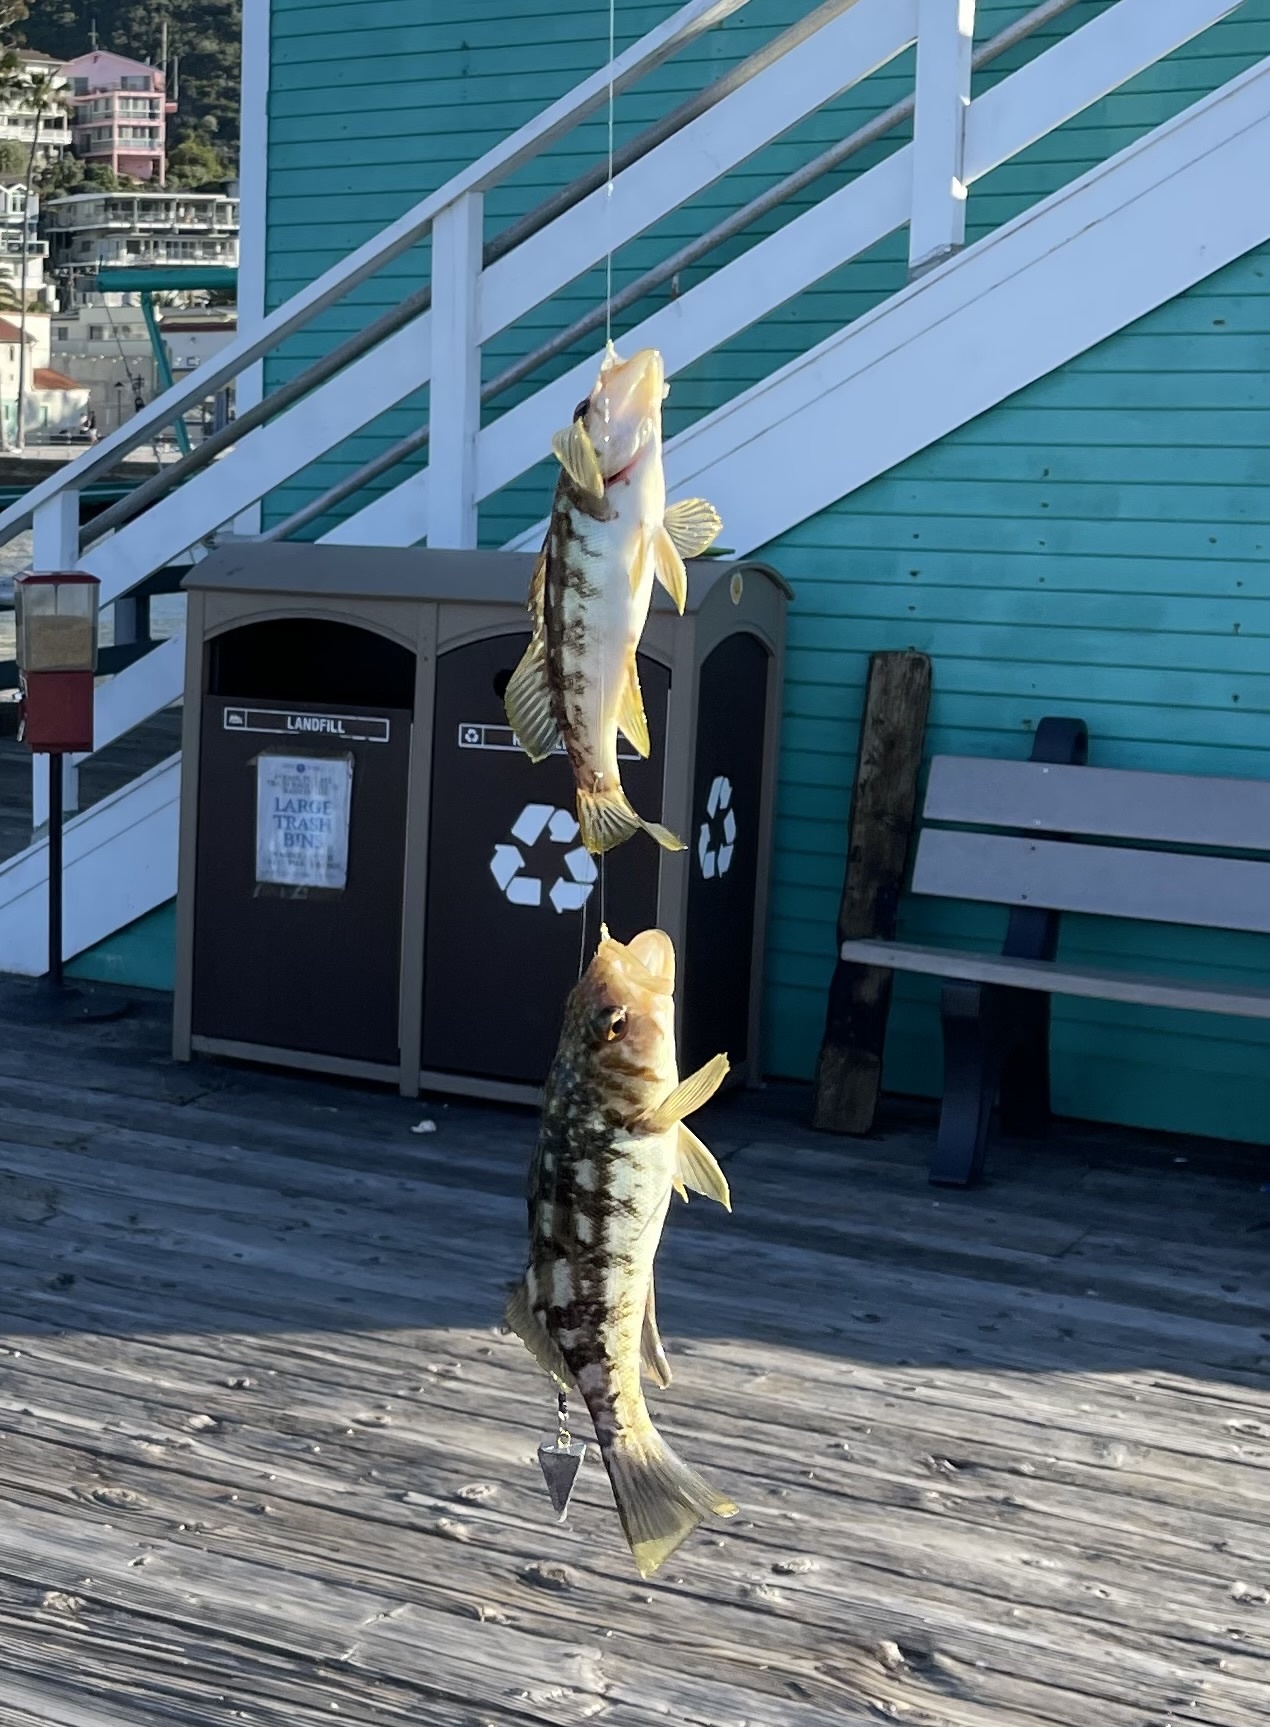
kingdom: Animalia
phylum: Chordata
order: Perciformes
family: Serranidae
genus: Paralabrax
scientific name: Paralabrax clathratus
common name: Kelp bass
